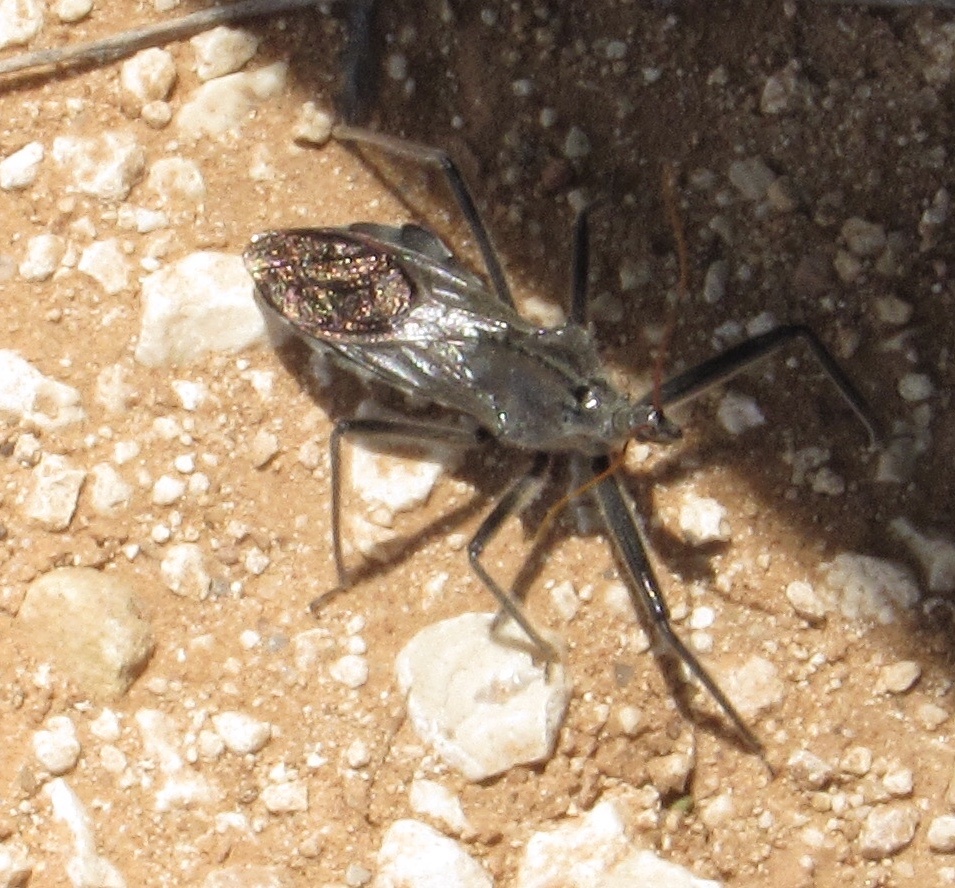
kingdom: Animalia
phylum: Arthropoda
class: Insecta
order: Hemiptera
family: Reduviidae
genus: Arilus
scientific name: Arilus cristatus
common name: North american wheel bug
